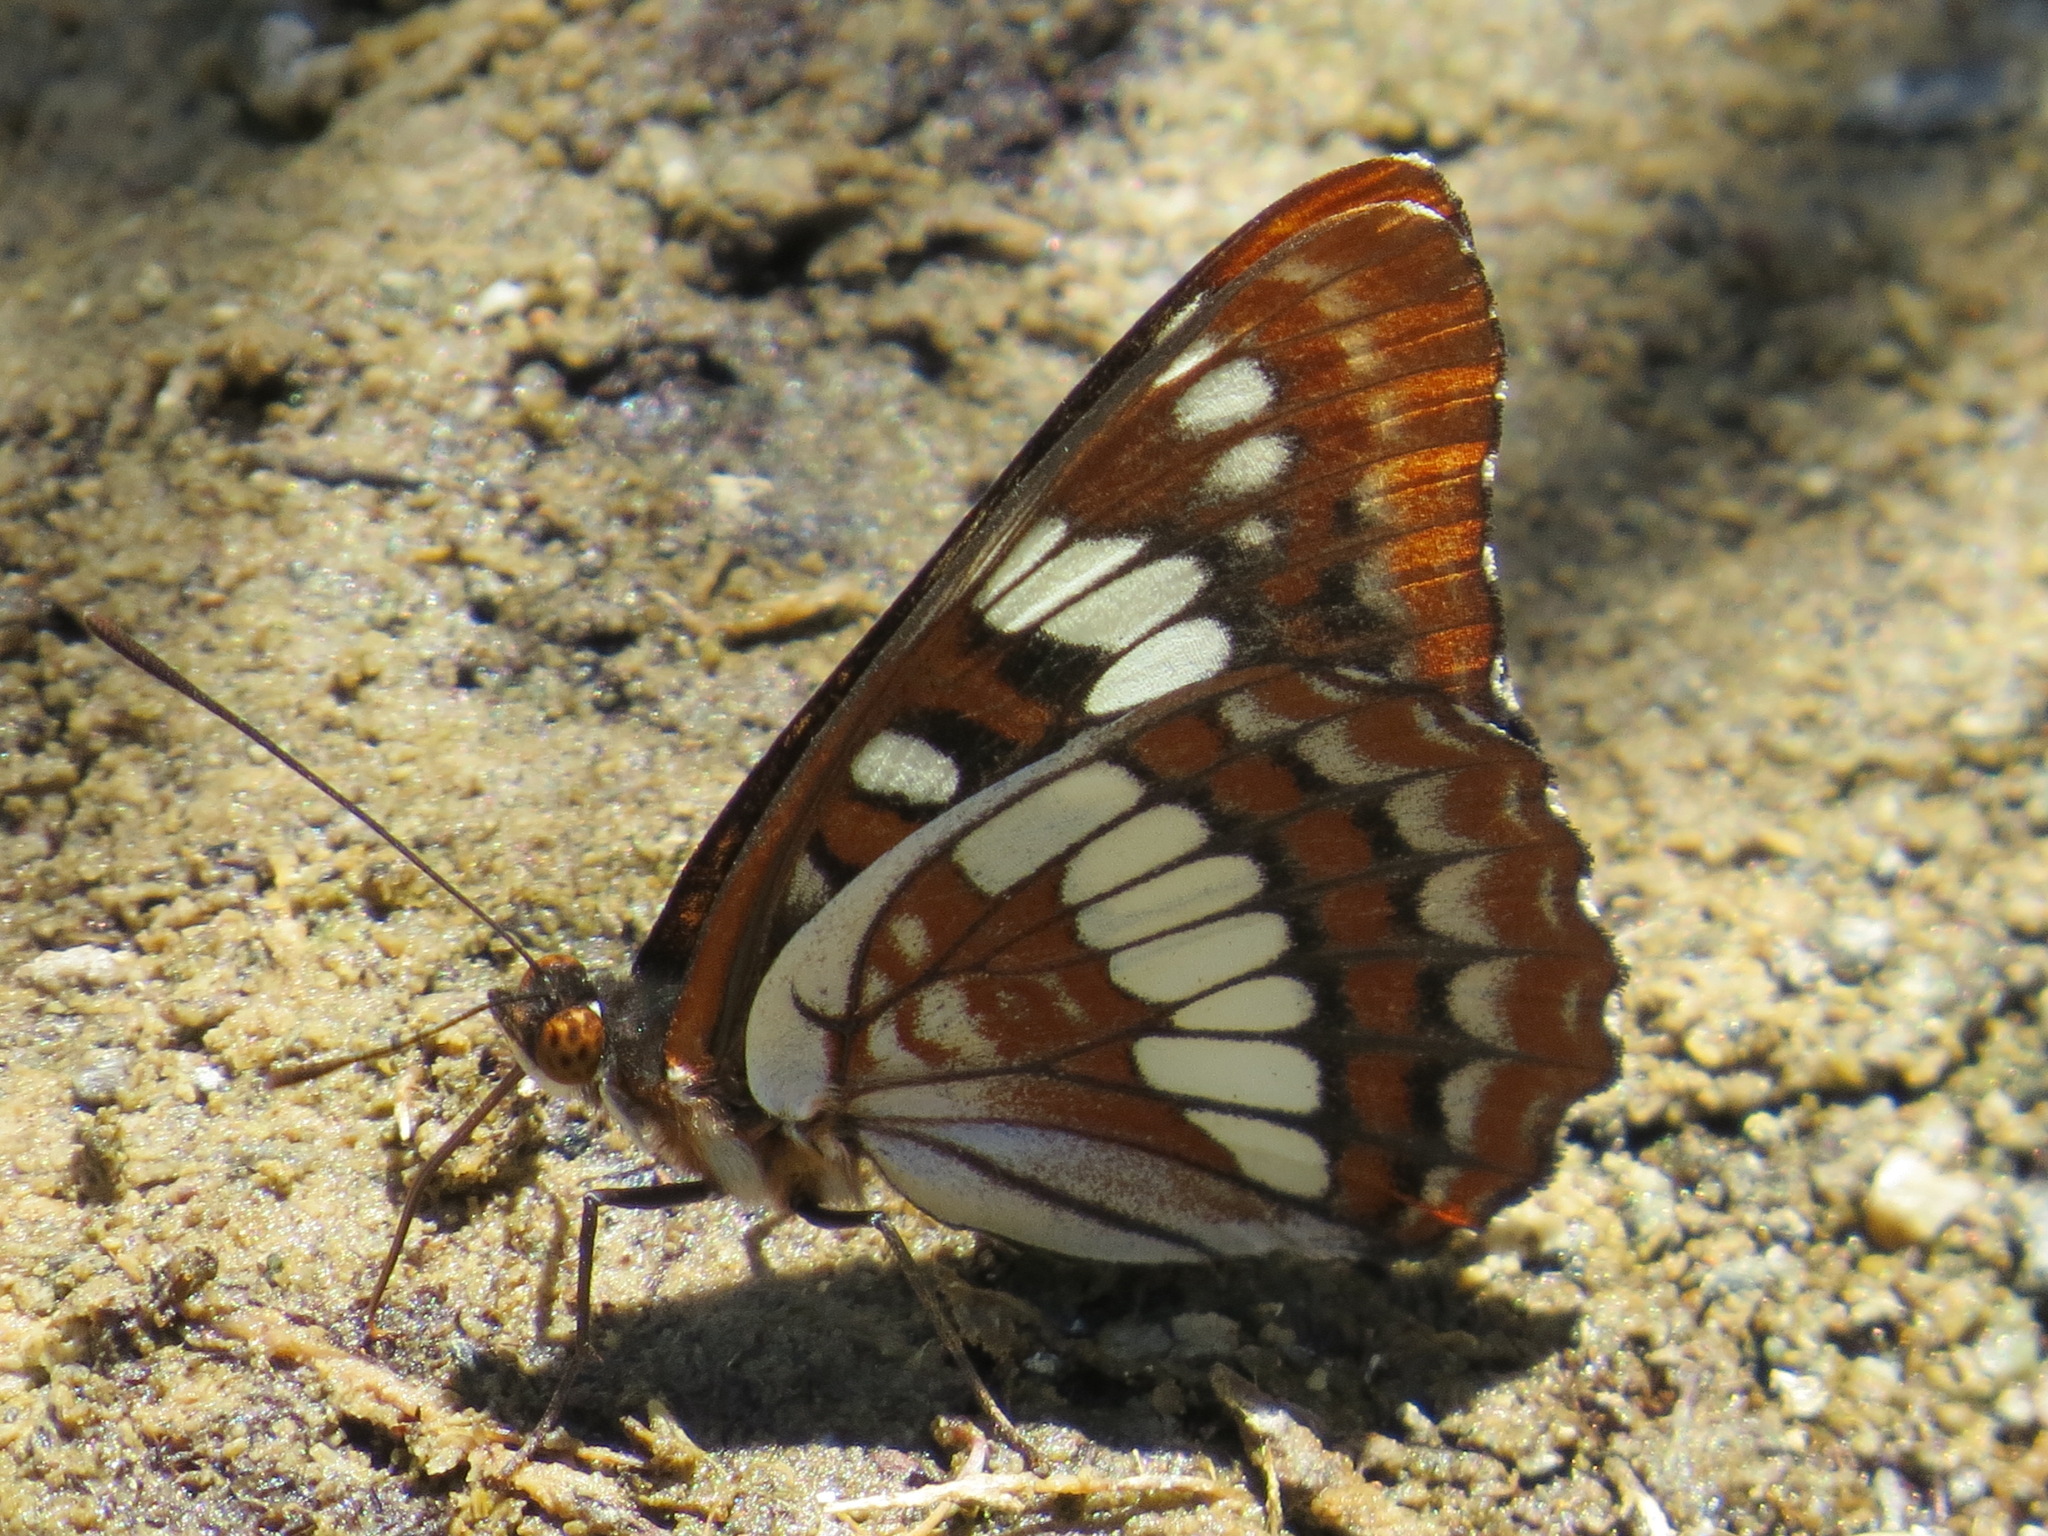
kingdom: Animalia
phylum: Arthropoda
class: Insecta
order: Lepidoptera
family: Nymphalidae
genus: Limenitis
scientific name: Limenitis lorquini
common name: Lorquin's admiral
